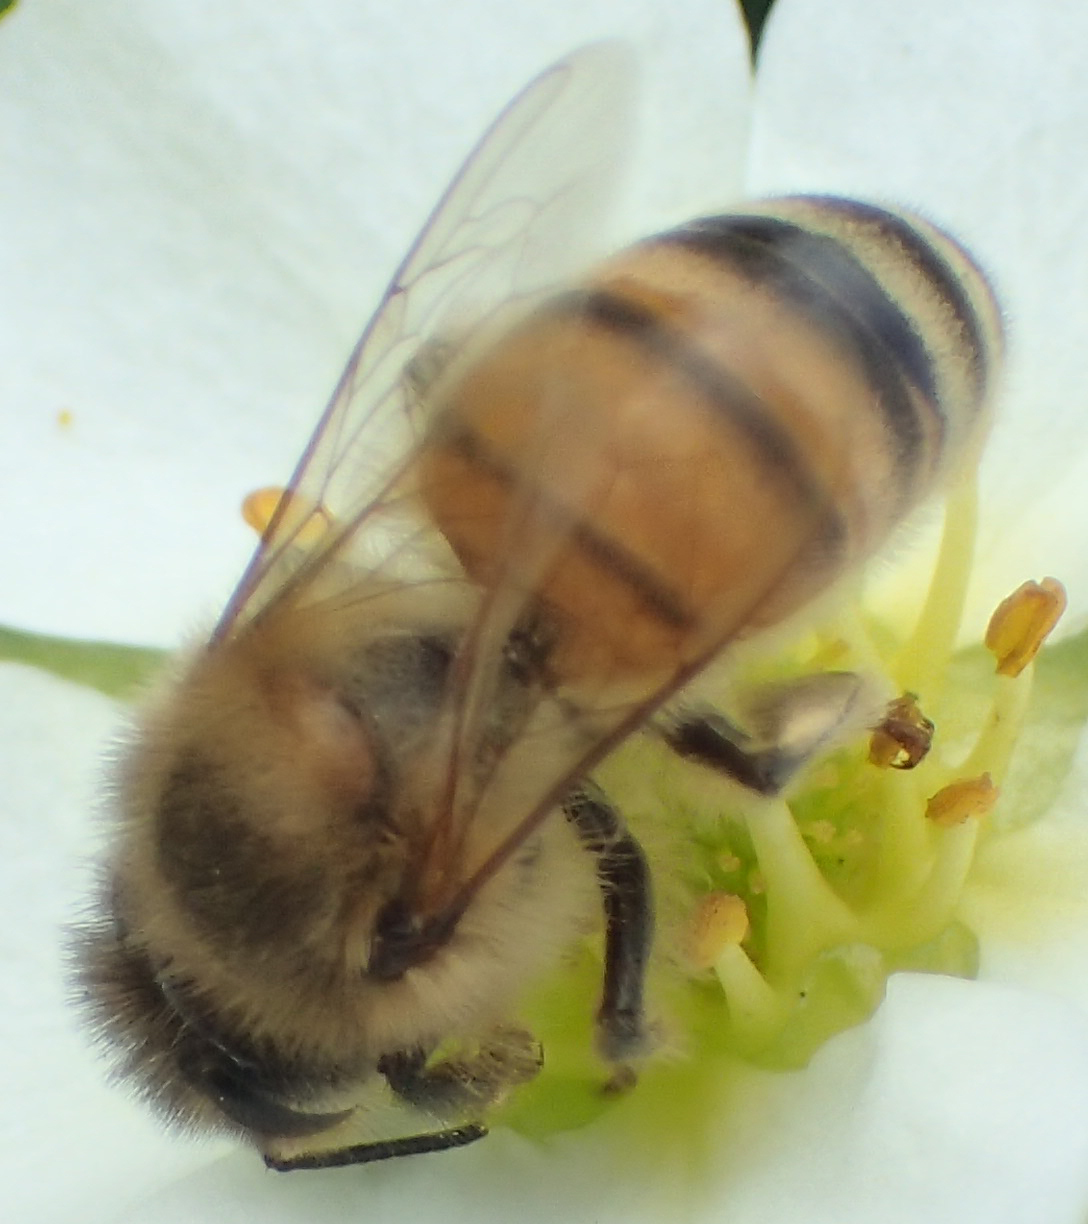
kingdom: Animalia
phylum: Arthropoda
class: Insecta
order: Hymenoptera
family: Apidae
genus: Apis
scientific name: Apis mellifera
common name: Honey bee
